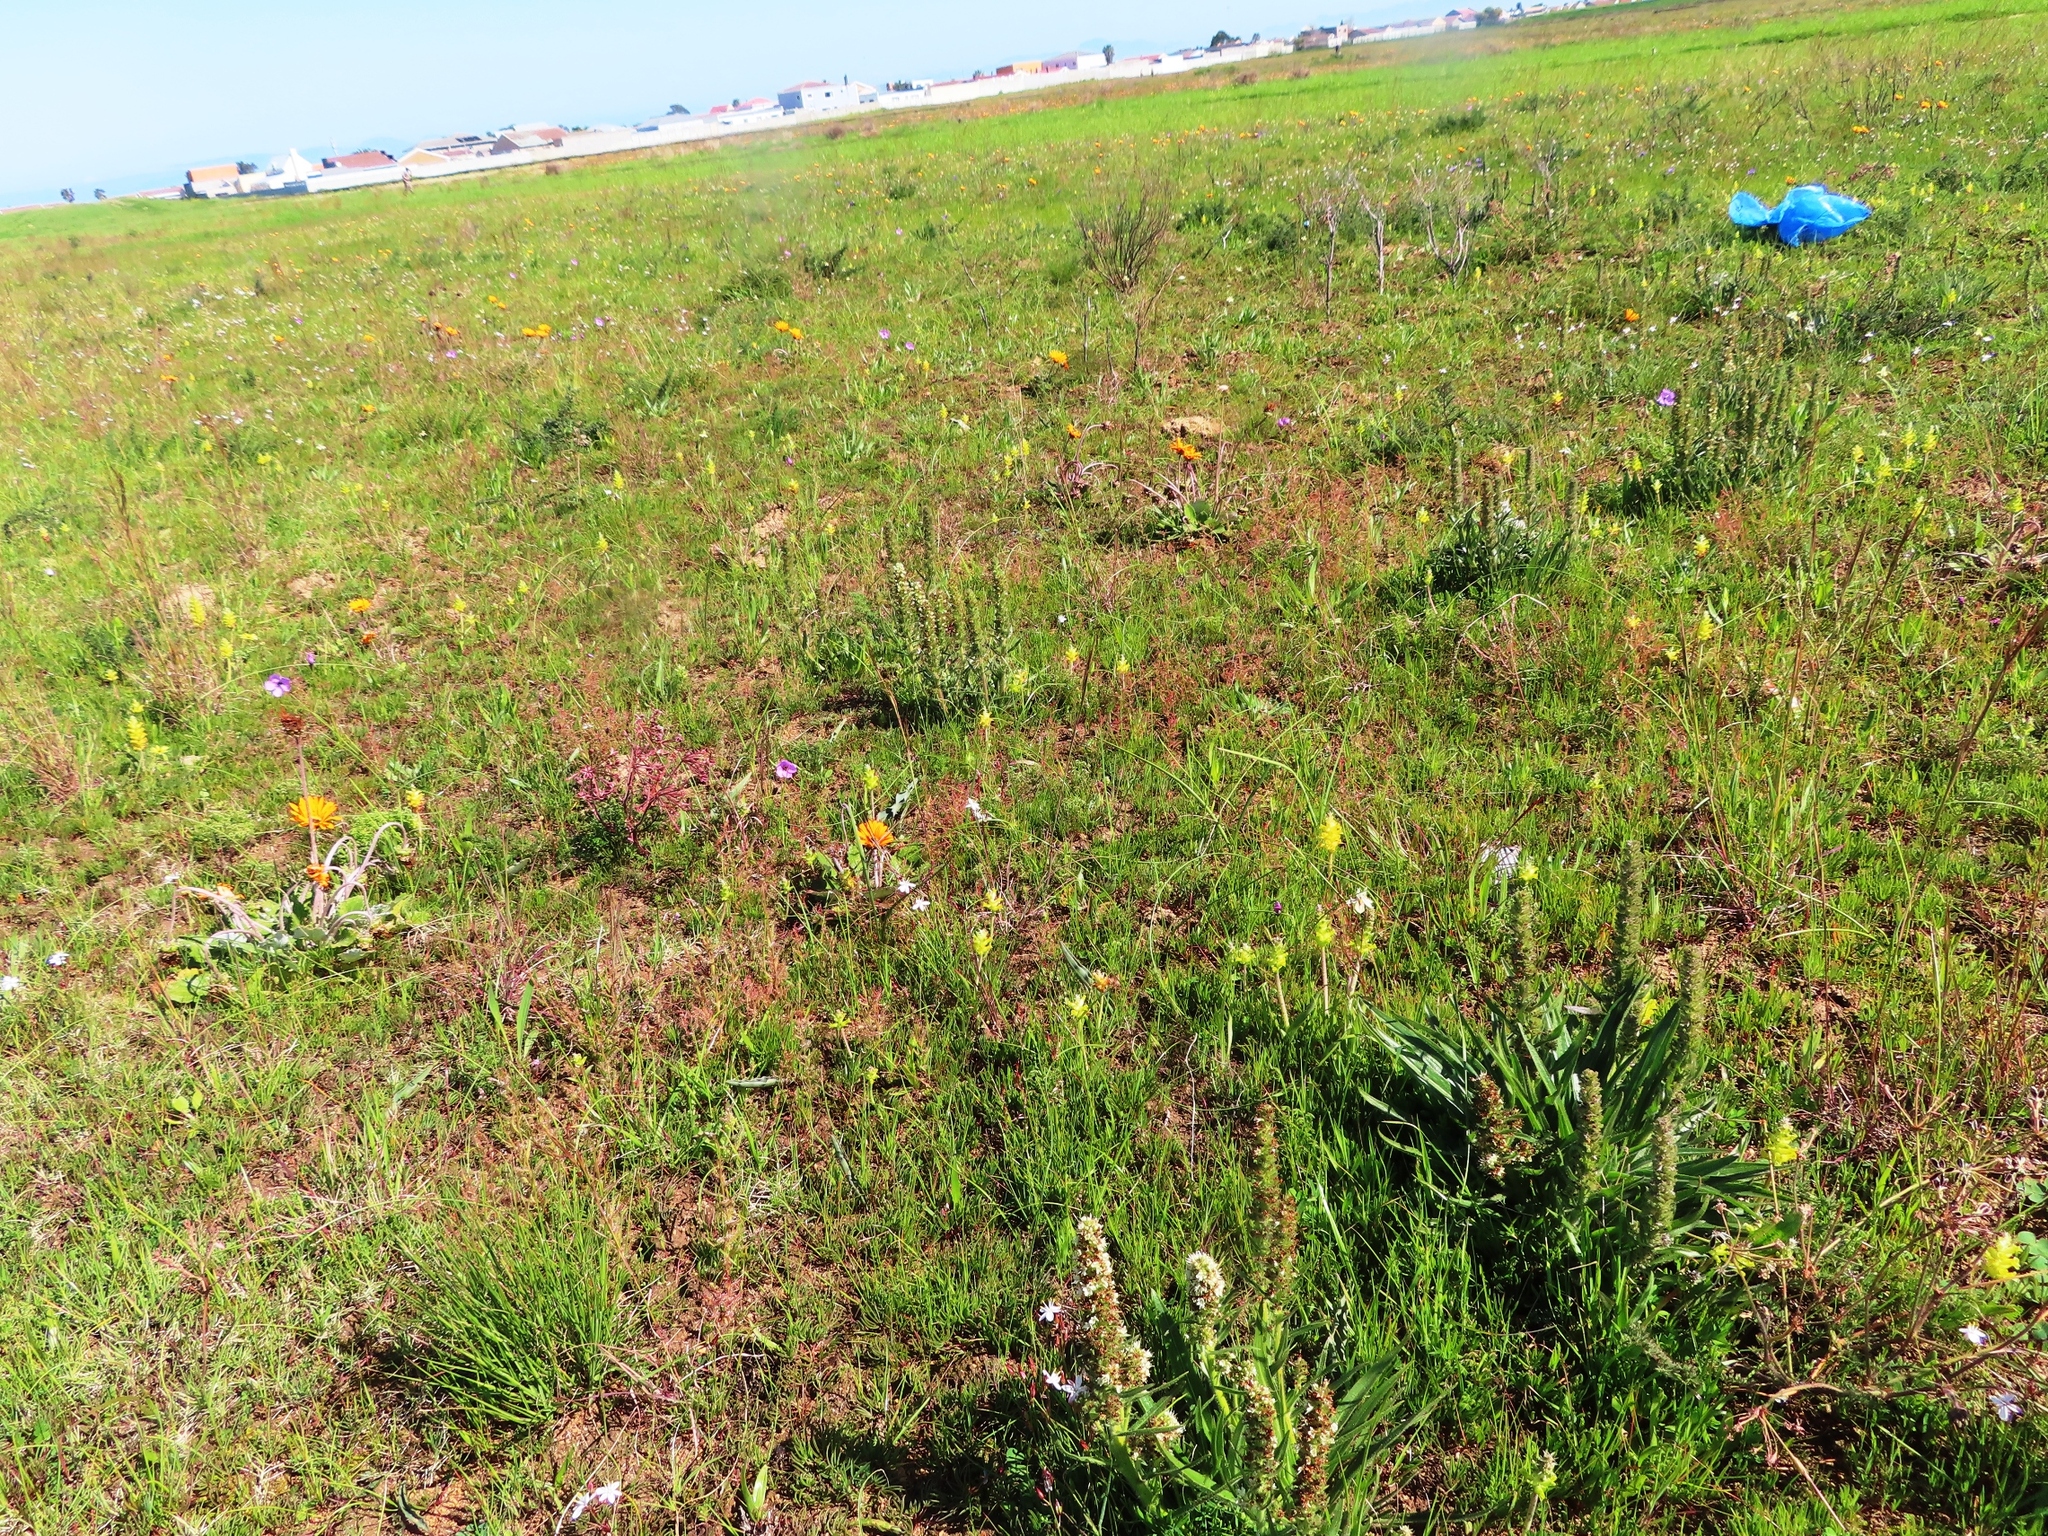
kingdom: Plantae
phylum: Tracheophyta
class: Magnoliopsida
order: Boraginales
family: Boraginaceae
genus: Lobostemon
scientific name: Lobostemon splendens
